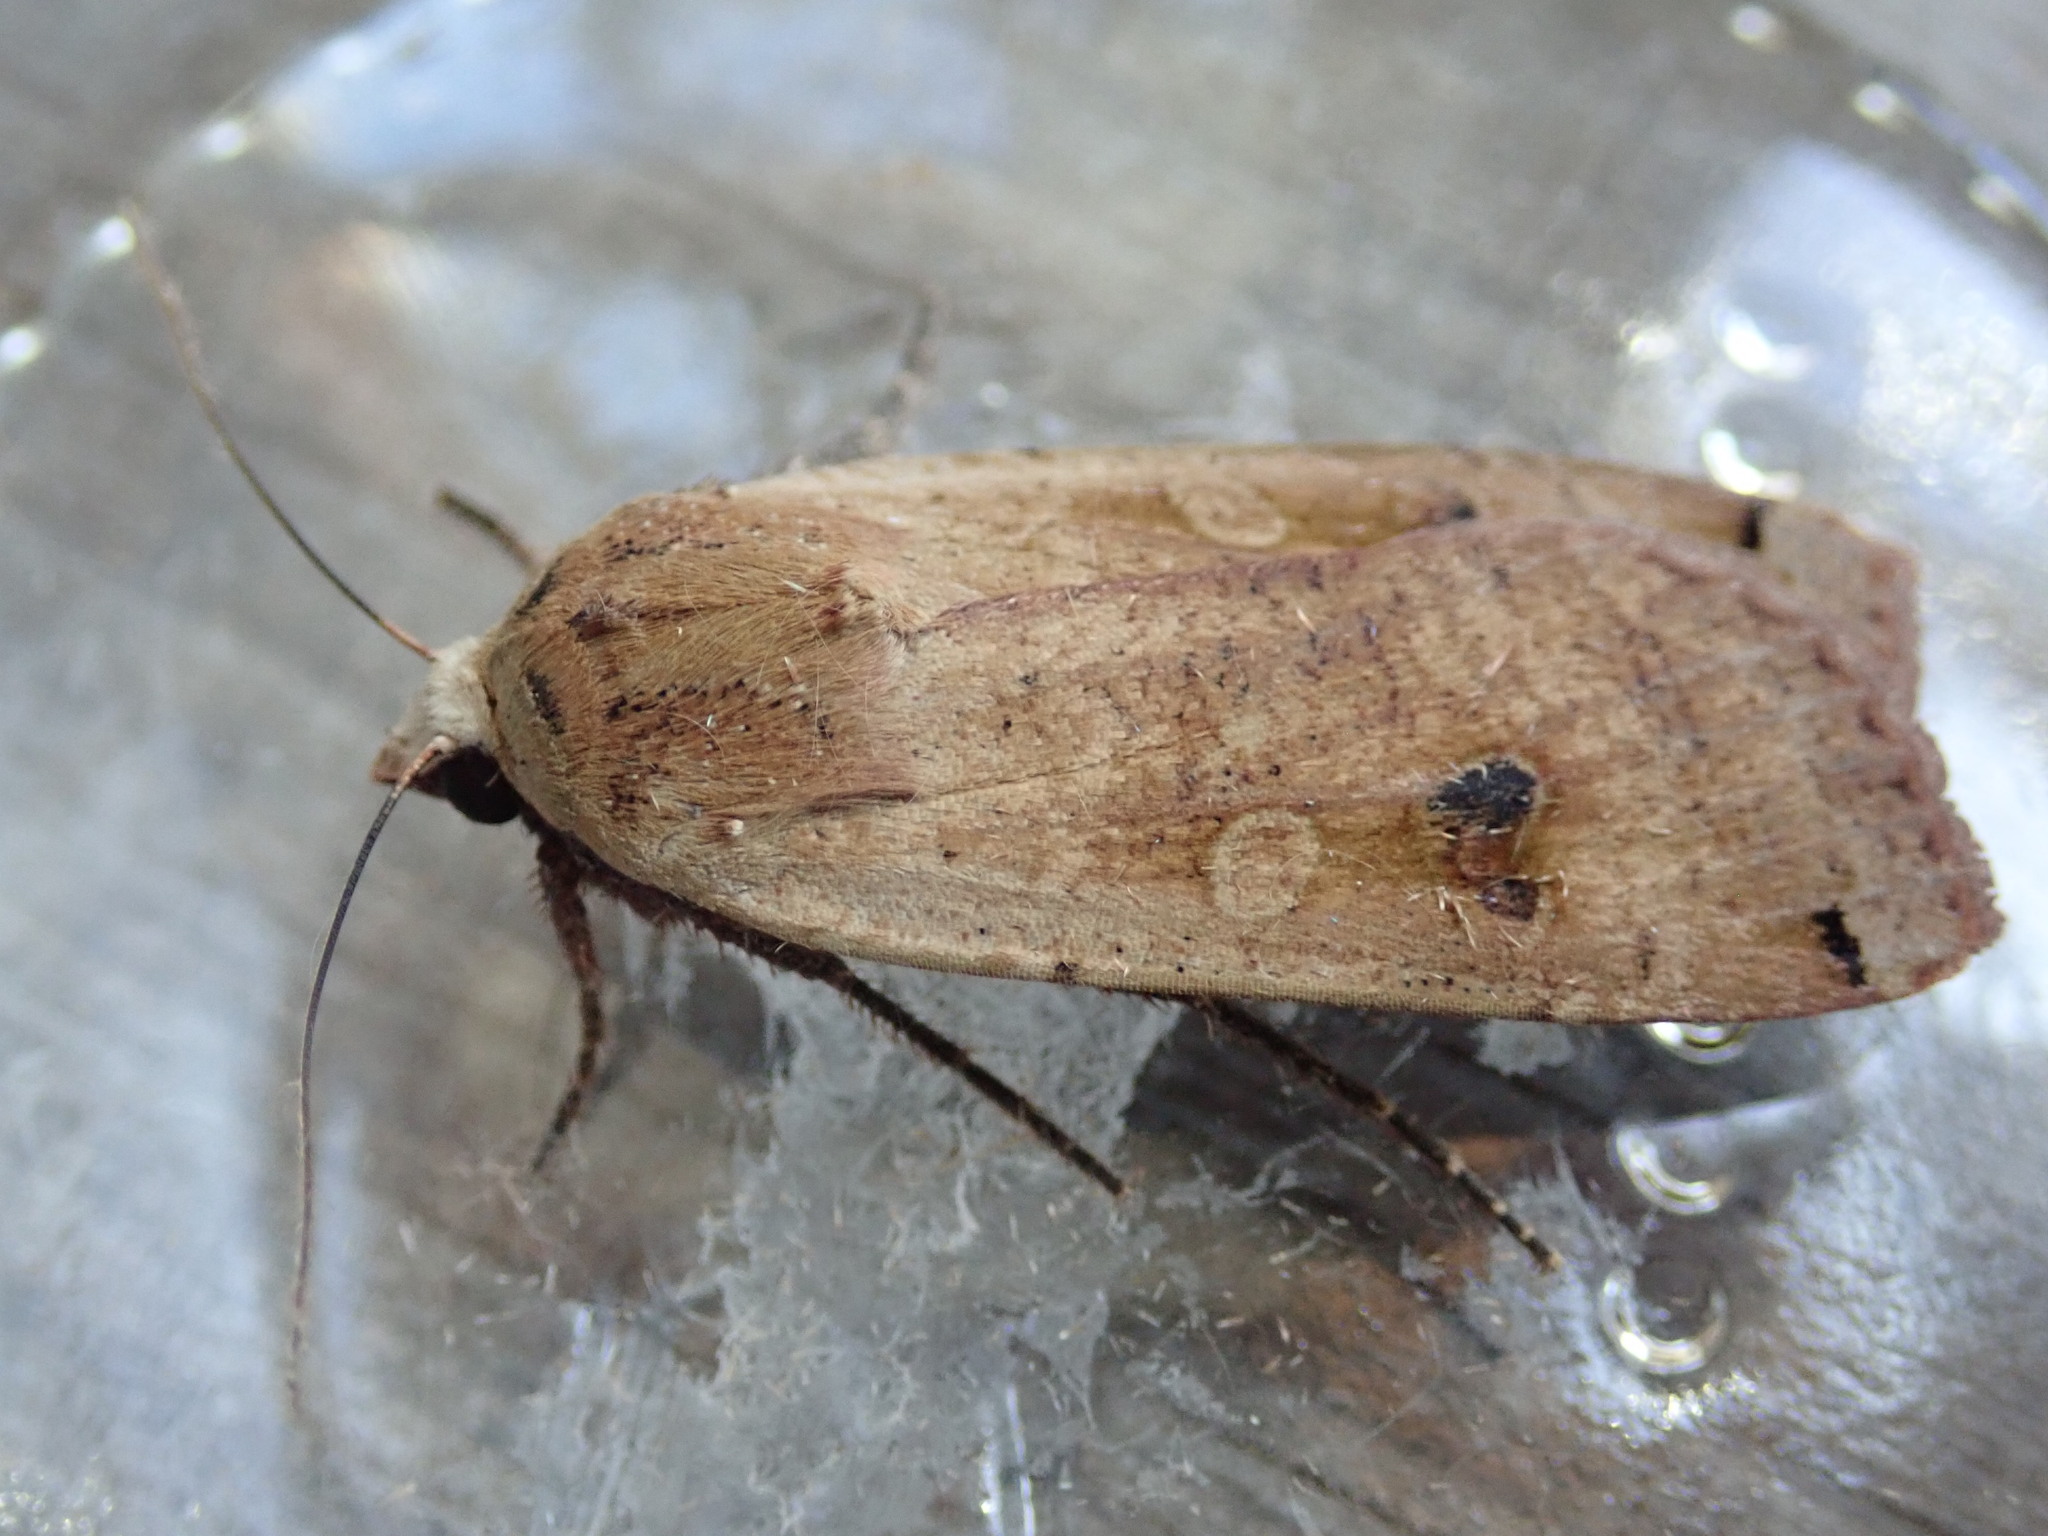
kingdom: Animalia
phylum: Arthropoda
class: Insecta
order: Lepidoptera
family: Noctuidae
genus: Noctua
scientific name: Noctua pronuba
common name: Large yellow underwing
